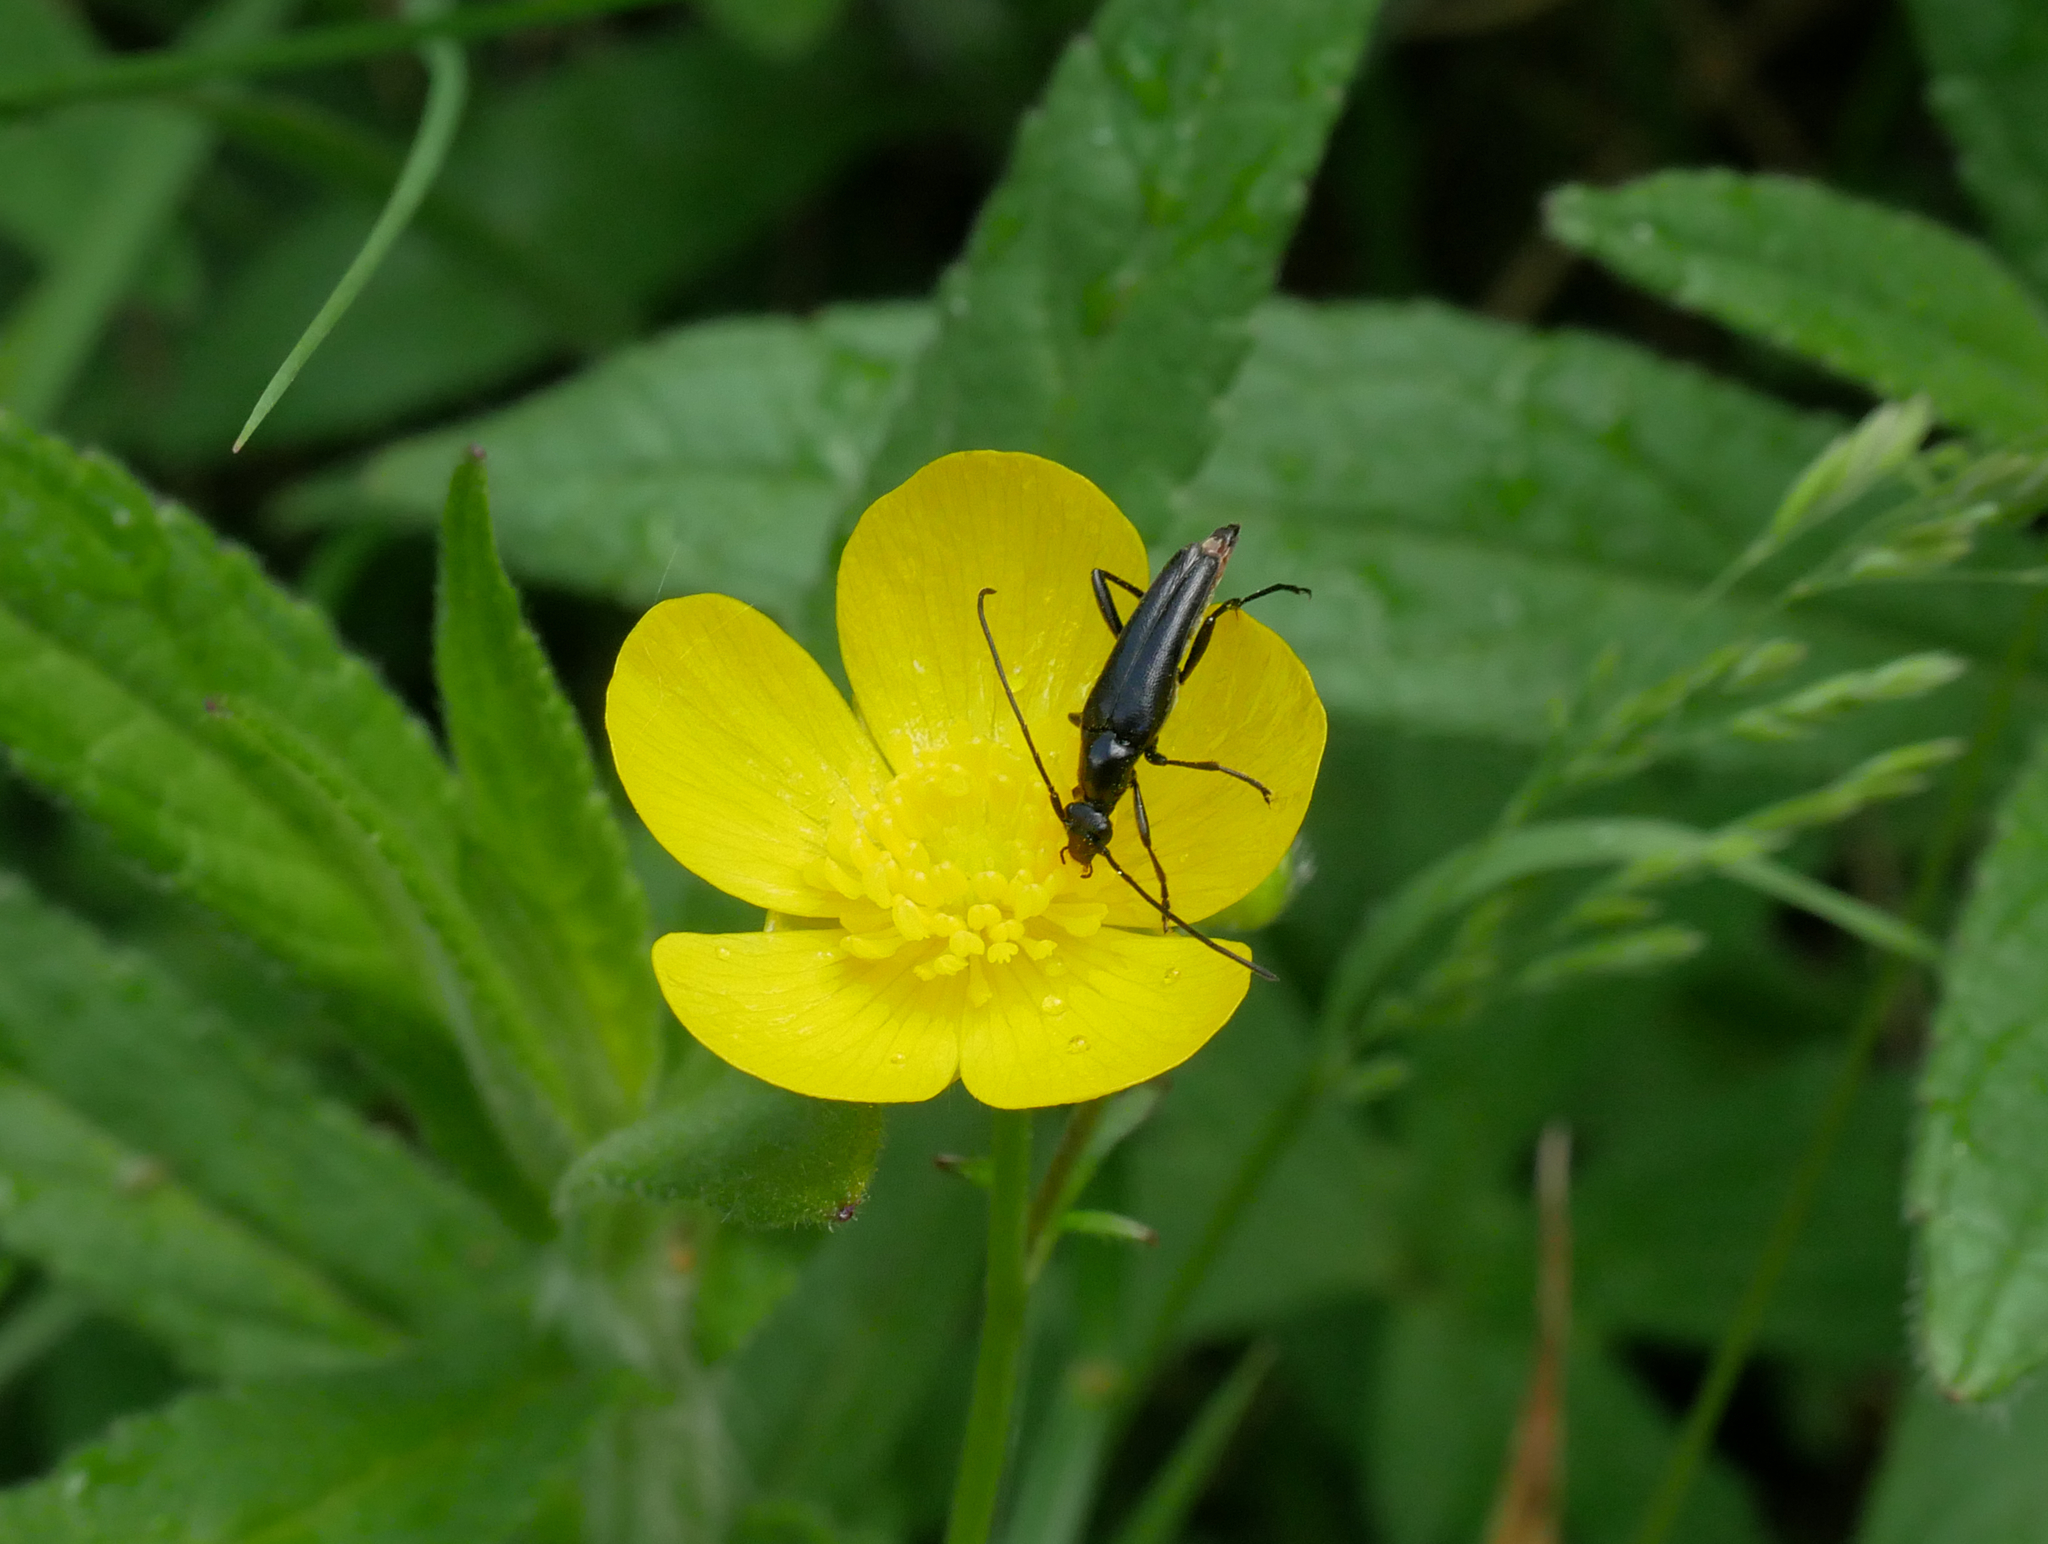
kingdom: Animalia
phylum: Arthropoda
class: Insecta
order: Coleoptera
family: Cerambycidae
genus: Stenurella
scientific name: Stenurella nigra
